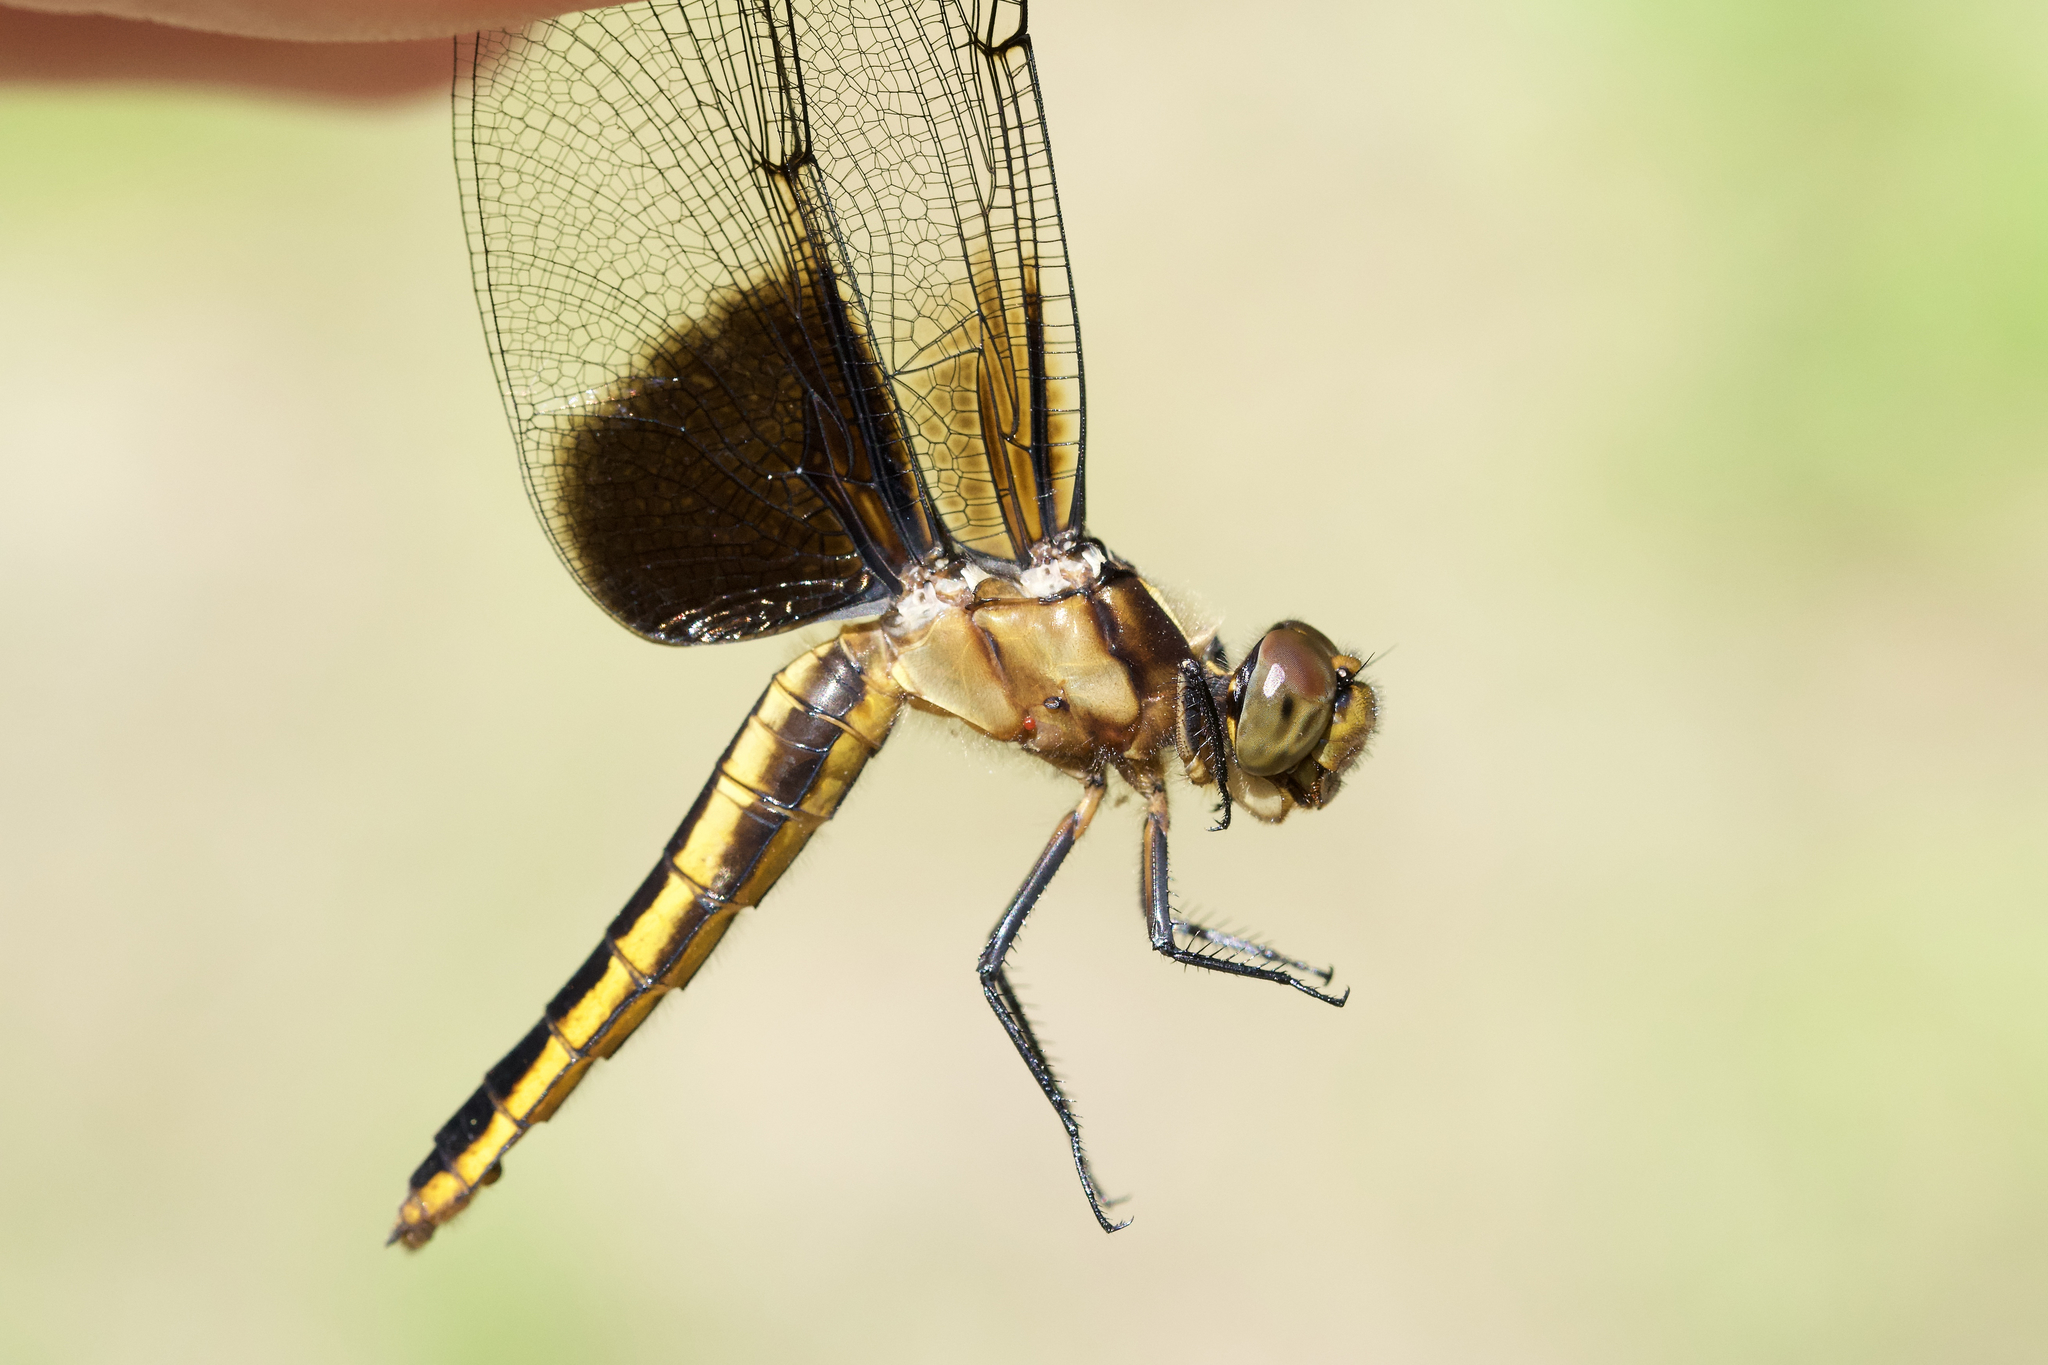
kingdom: Animalia
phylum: Arthropoda
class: Insecta
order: Odonata
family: Libellulidae
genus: Libellula
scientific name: Libellula luctuosa
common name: Widow skimmer
